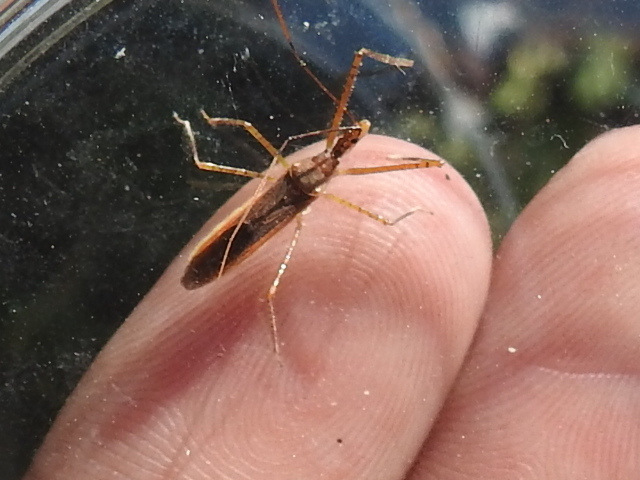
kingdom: Animalia
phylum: Arthropoda
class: Insecta
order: Hemiptera
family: Reduviidae
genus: Zelus
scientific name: Zelus cervicalis
